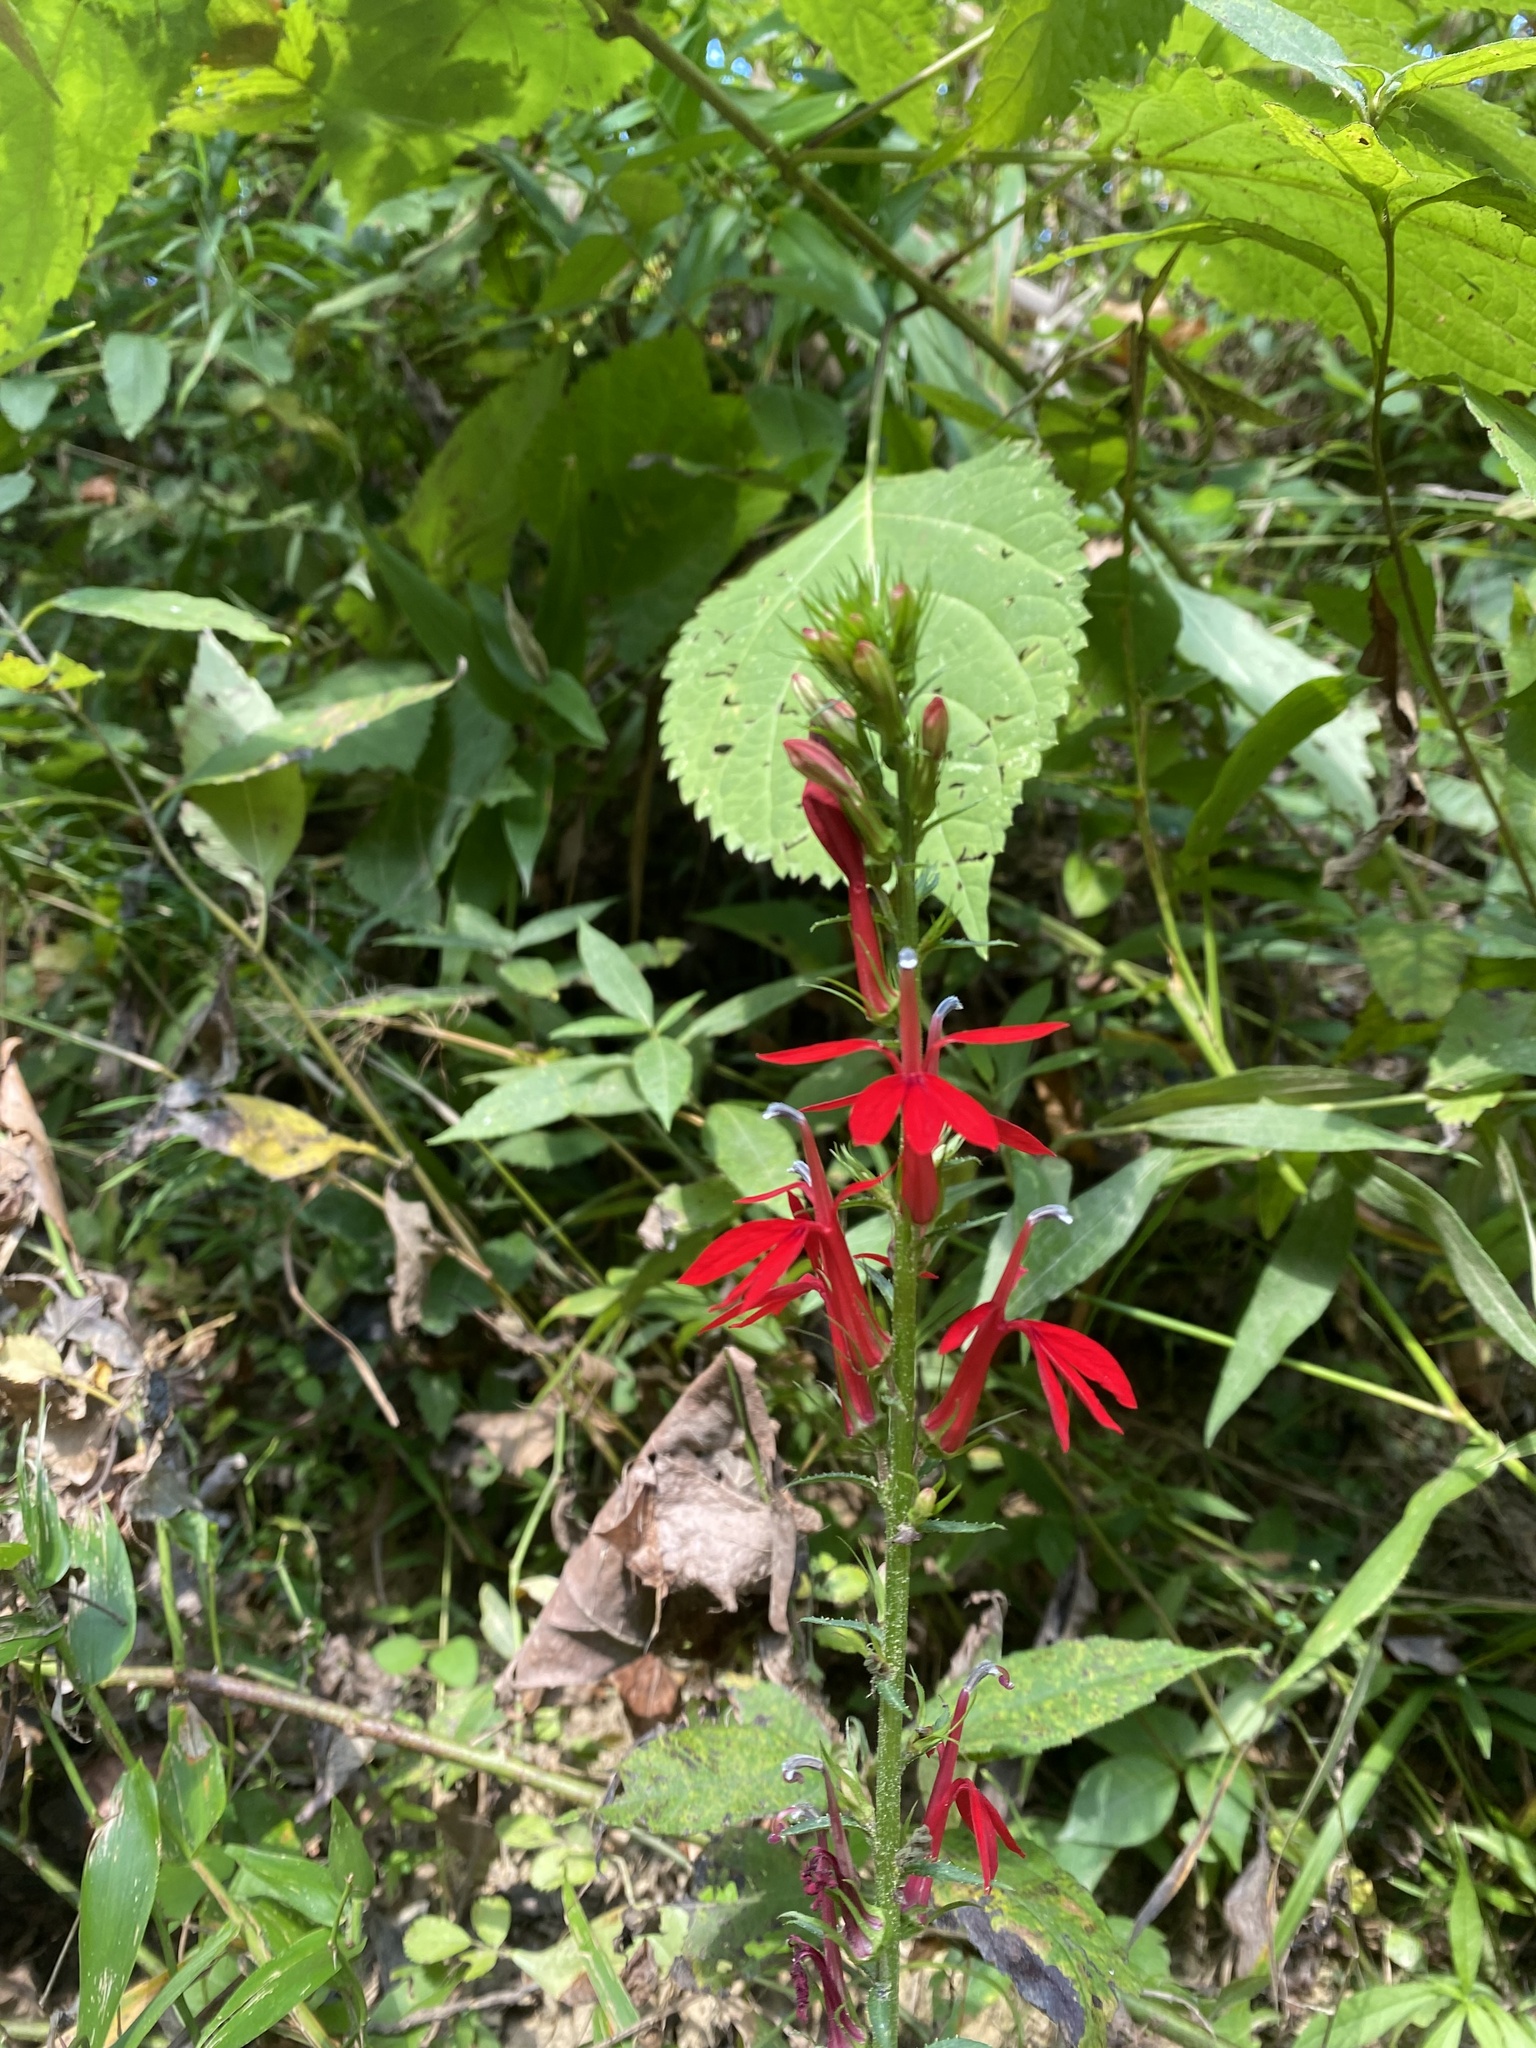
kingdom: Plantae
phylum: Tracheophyta
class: Magnoliopsida
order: Asterales
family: Campanulaceae
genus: Lobelia
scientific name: Lobelia cardinalis
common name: Cardinal flower
